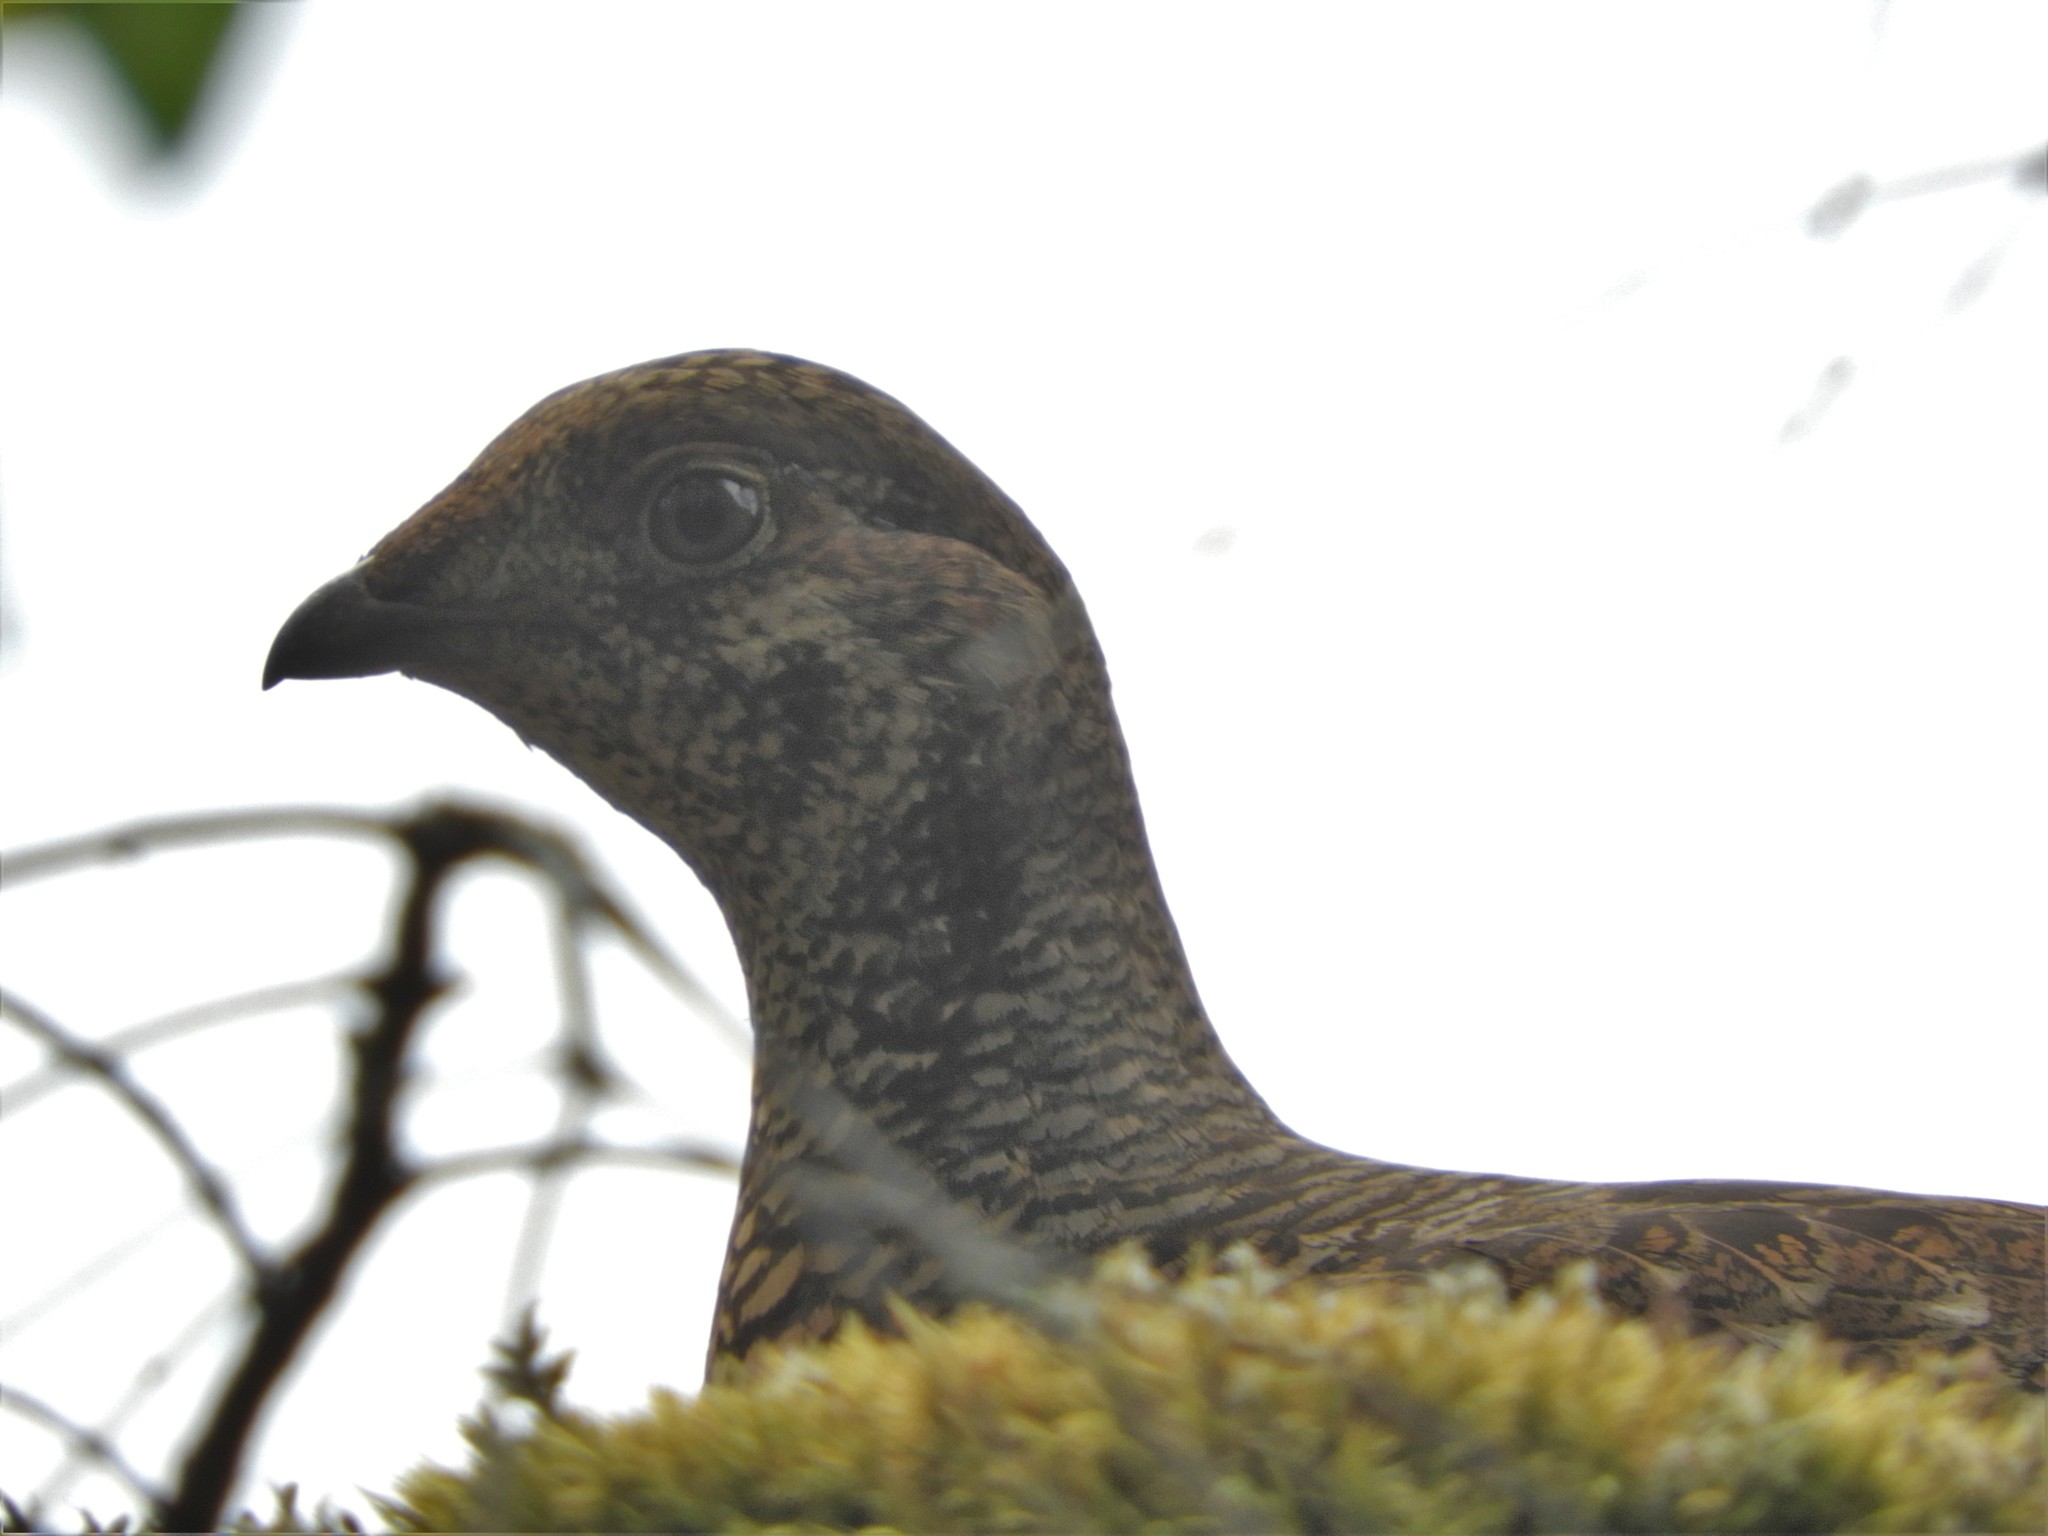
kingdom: Animalia
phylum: Chordata
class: Aves
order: Galliformes
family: Phasianidae
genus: Dendragapus
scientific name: Dendragapus fuliginosus
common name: Sooty grouse
